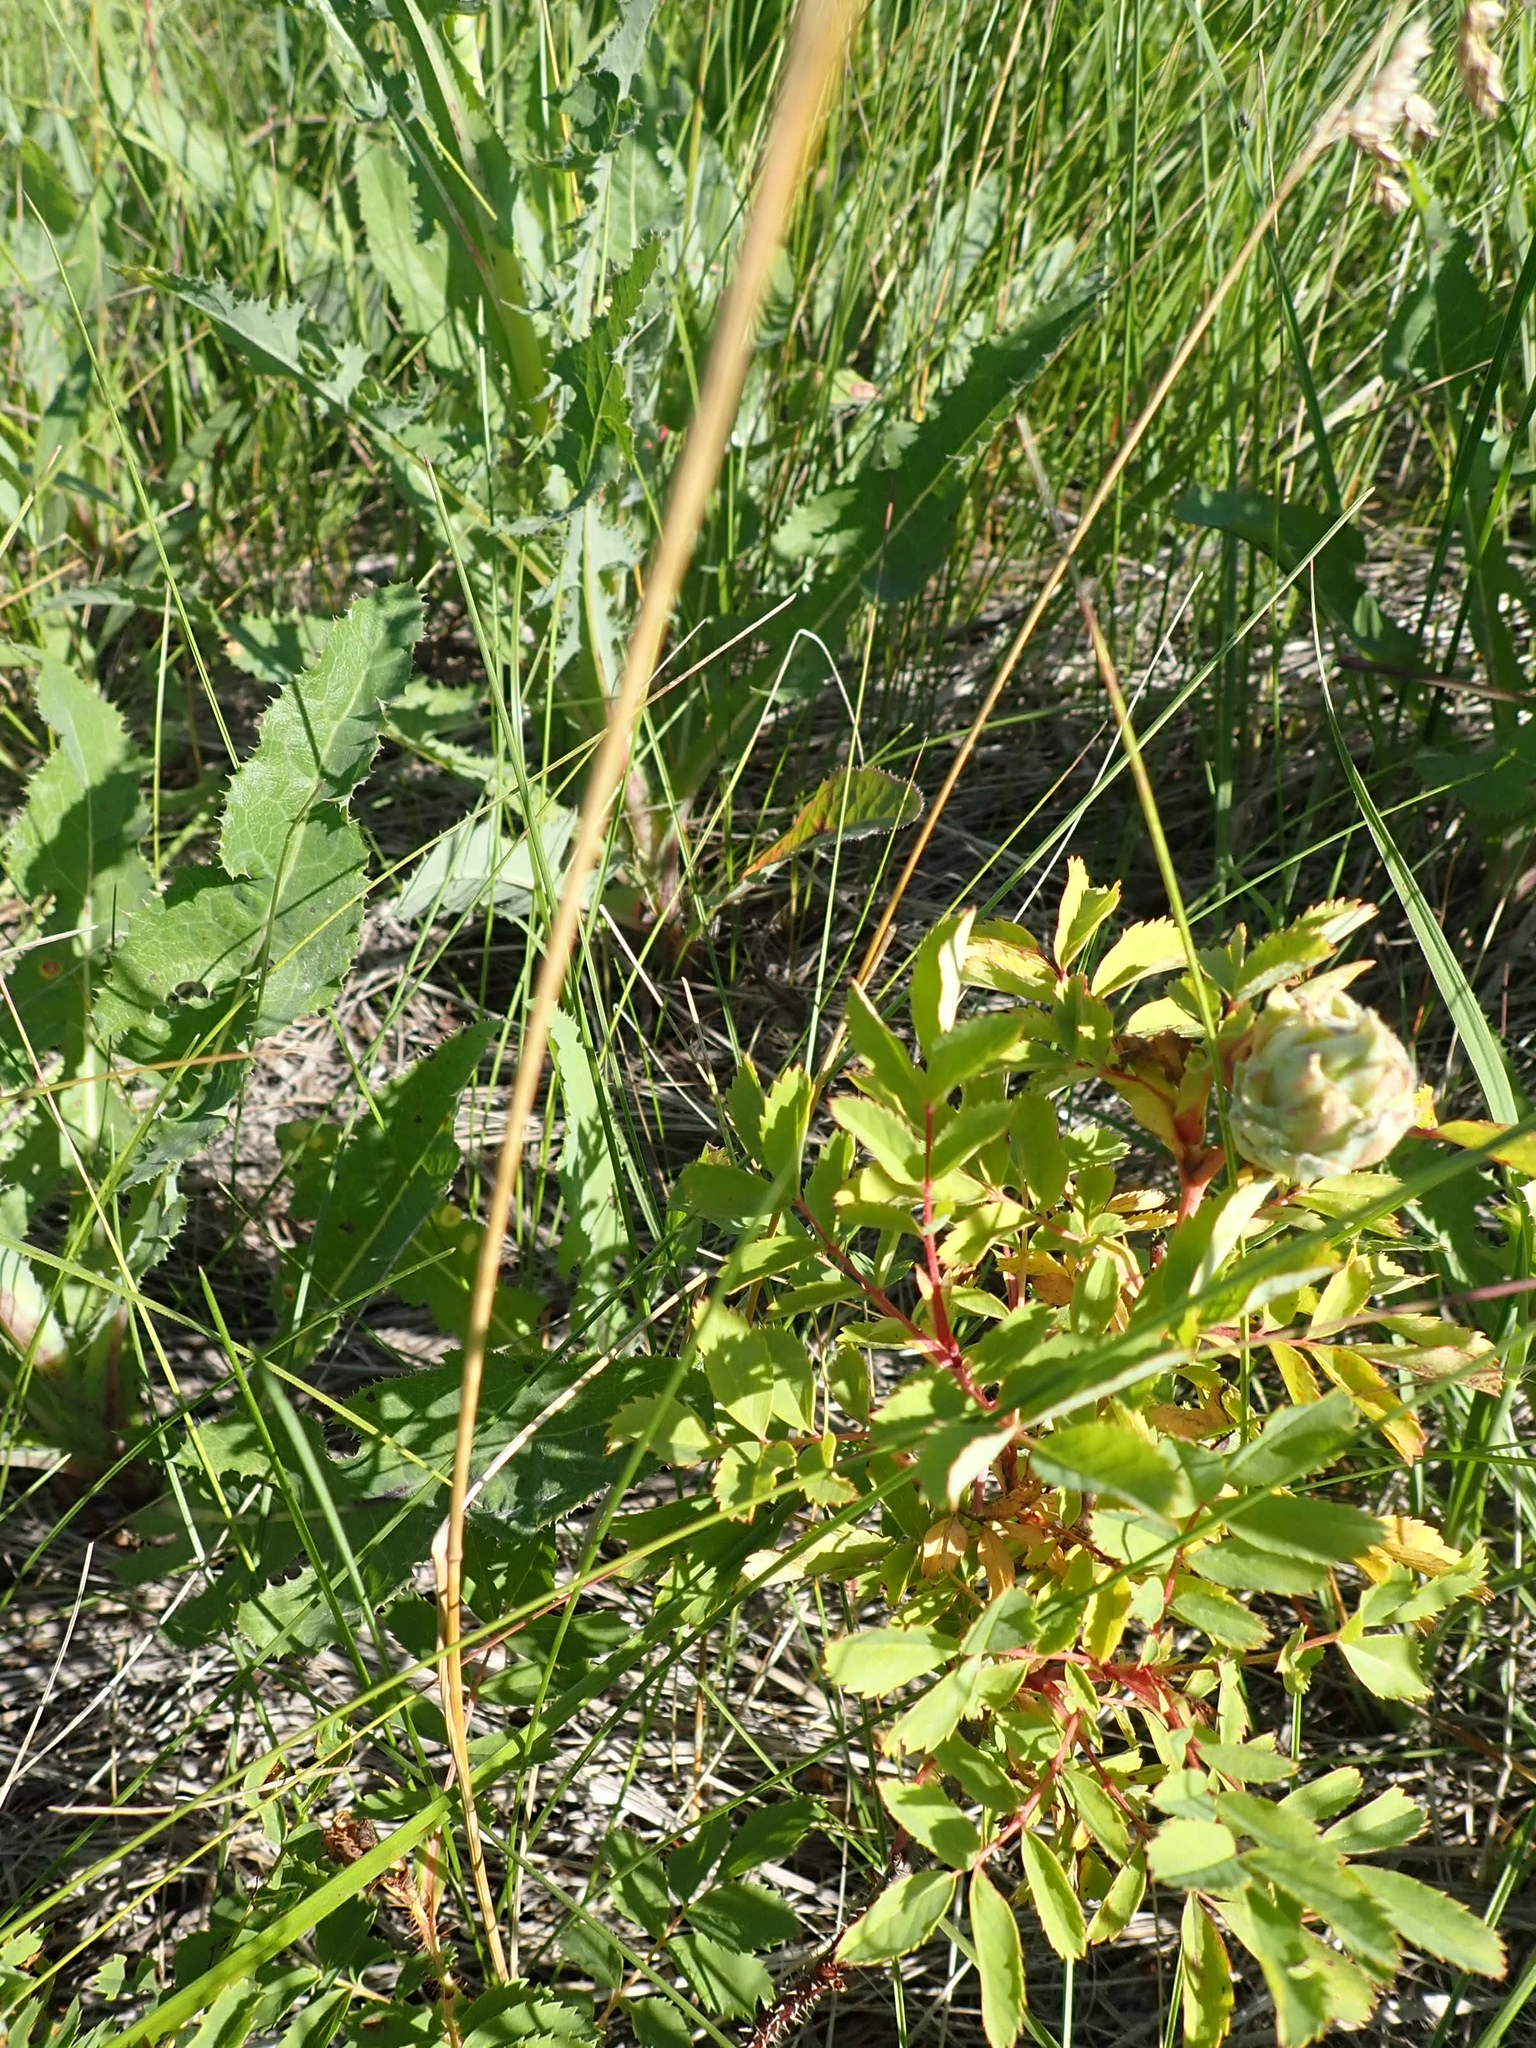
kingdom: Animalia
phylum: Arthropoda
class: Insecta
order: Diptera
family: Cecidomyiidae
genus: Rabdophaga
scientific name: Rabdophaga rosacea
